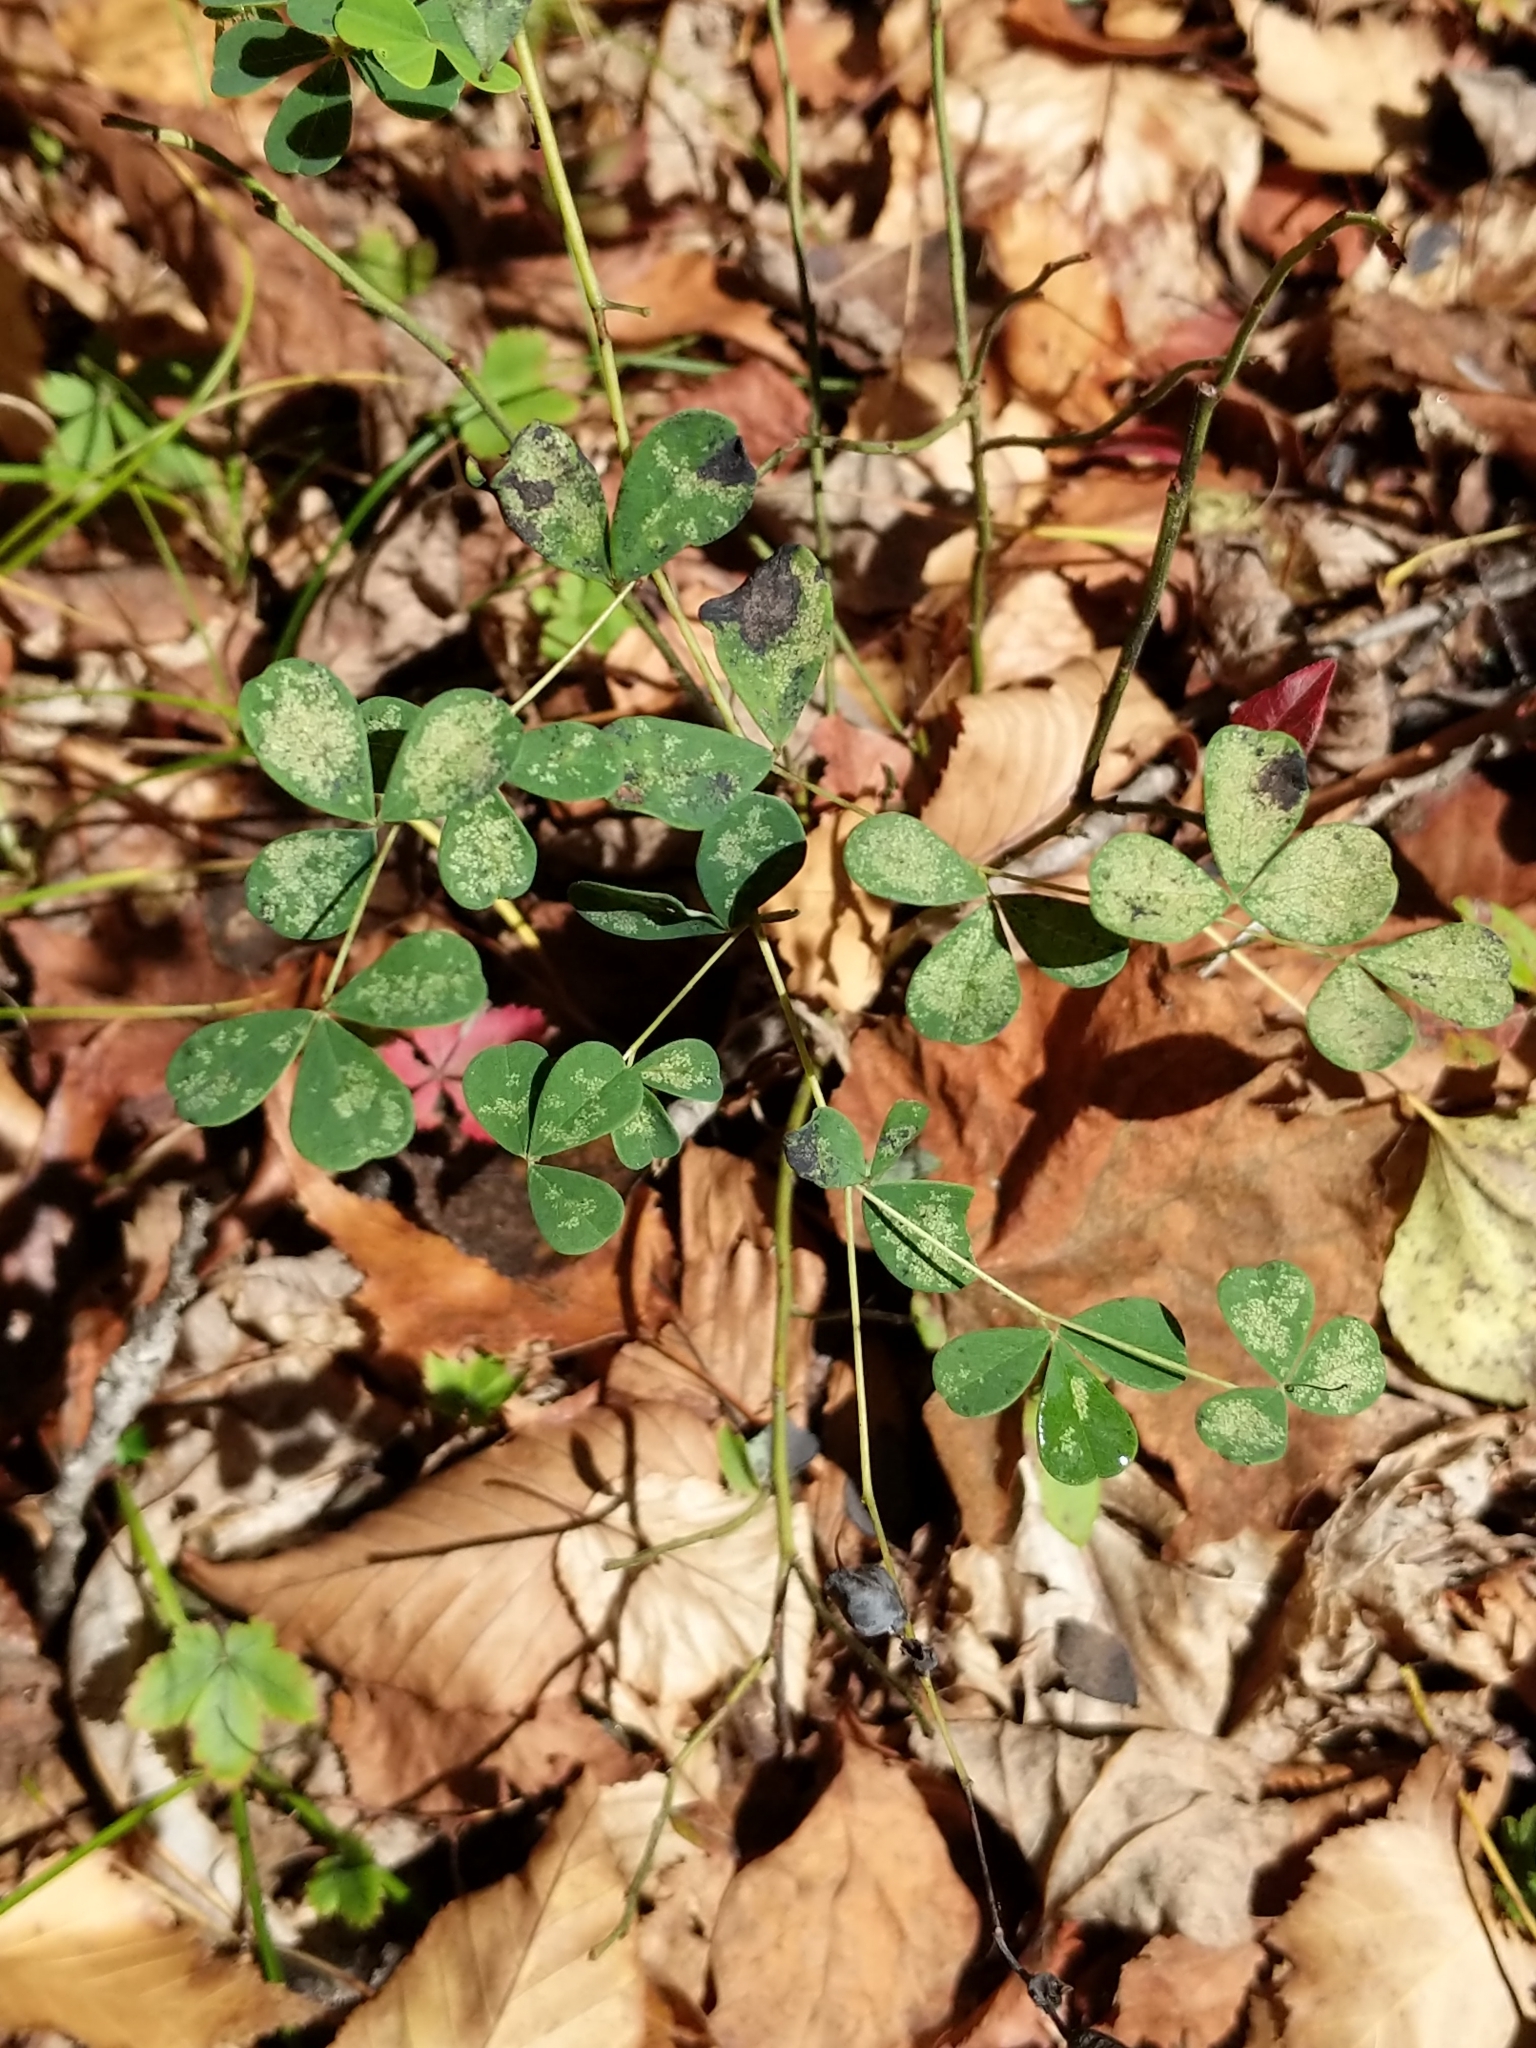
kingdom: Plantae
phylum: Tracheophyta
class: Magnoliopsida
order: Fabales
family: Fabaceae
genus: Baptisia
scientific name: Baptisia tinctoria
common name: Wild indigo
